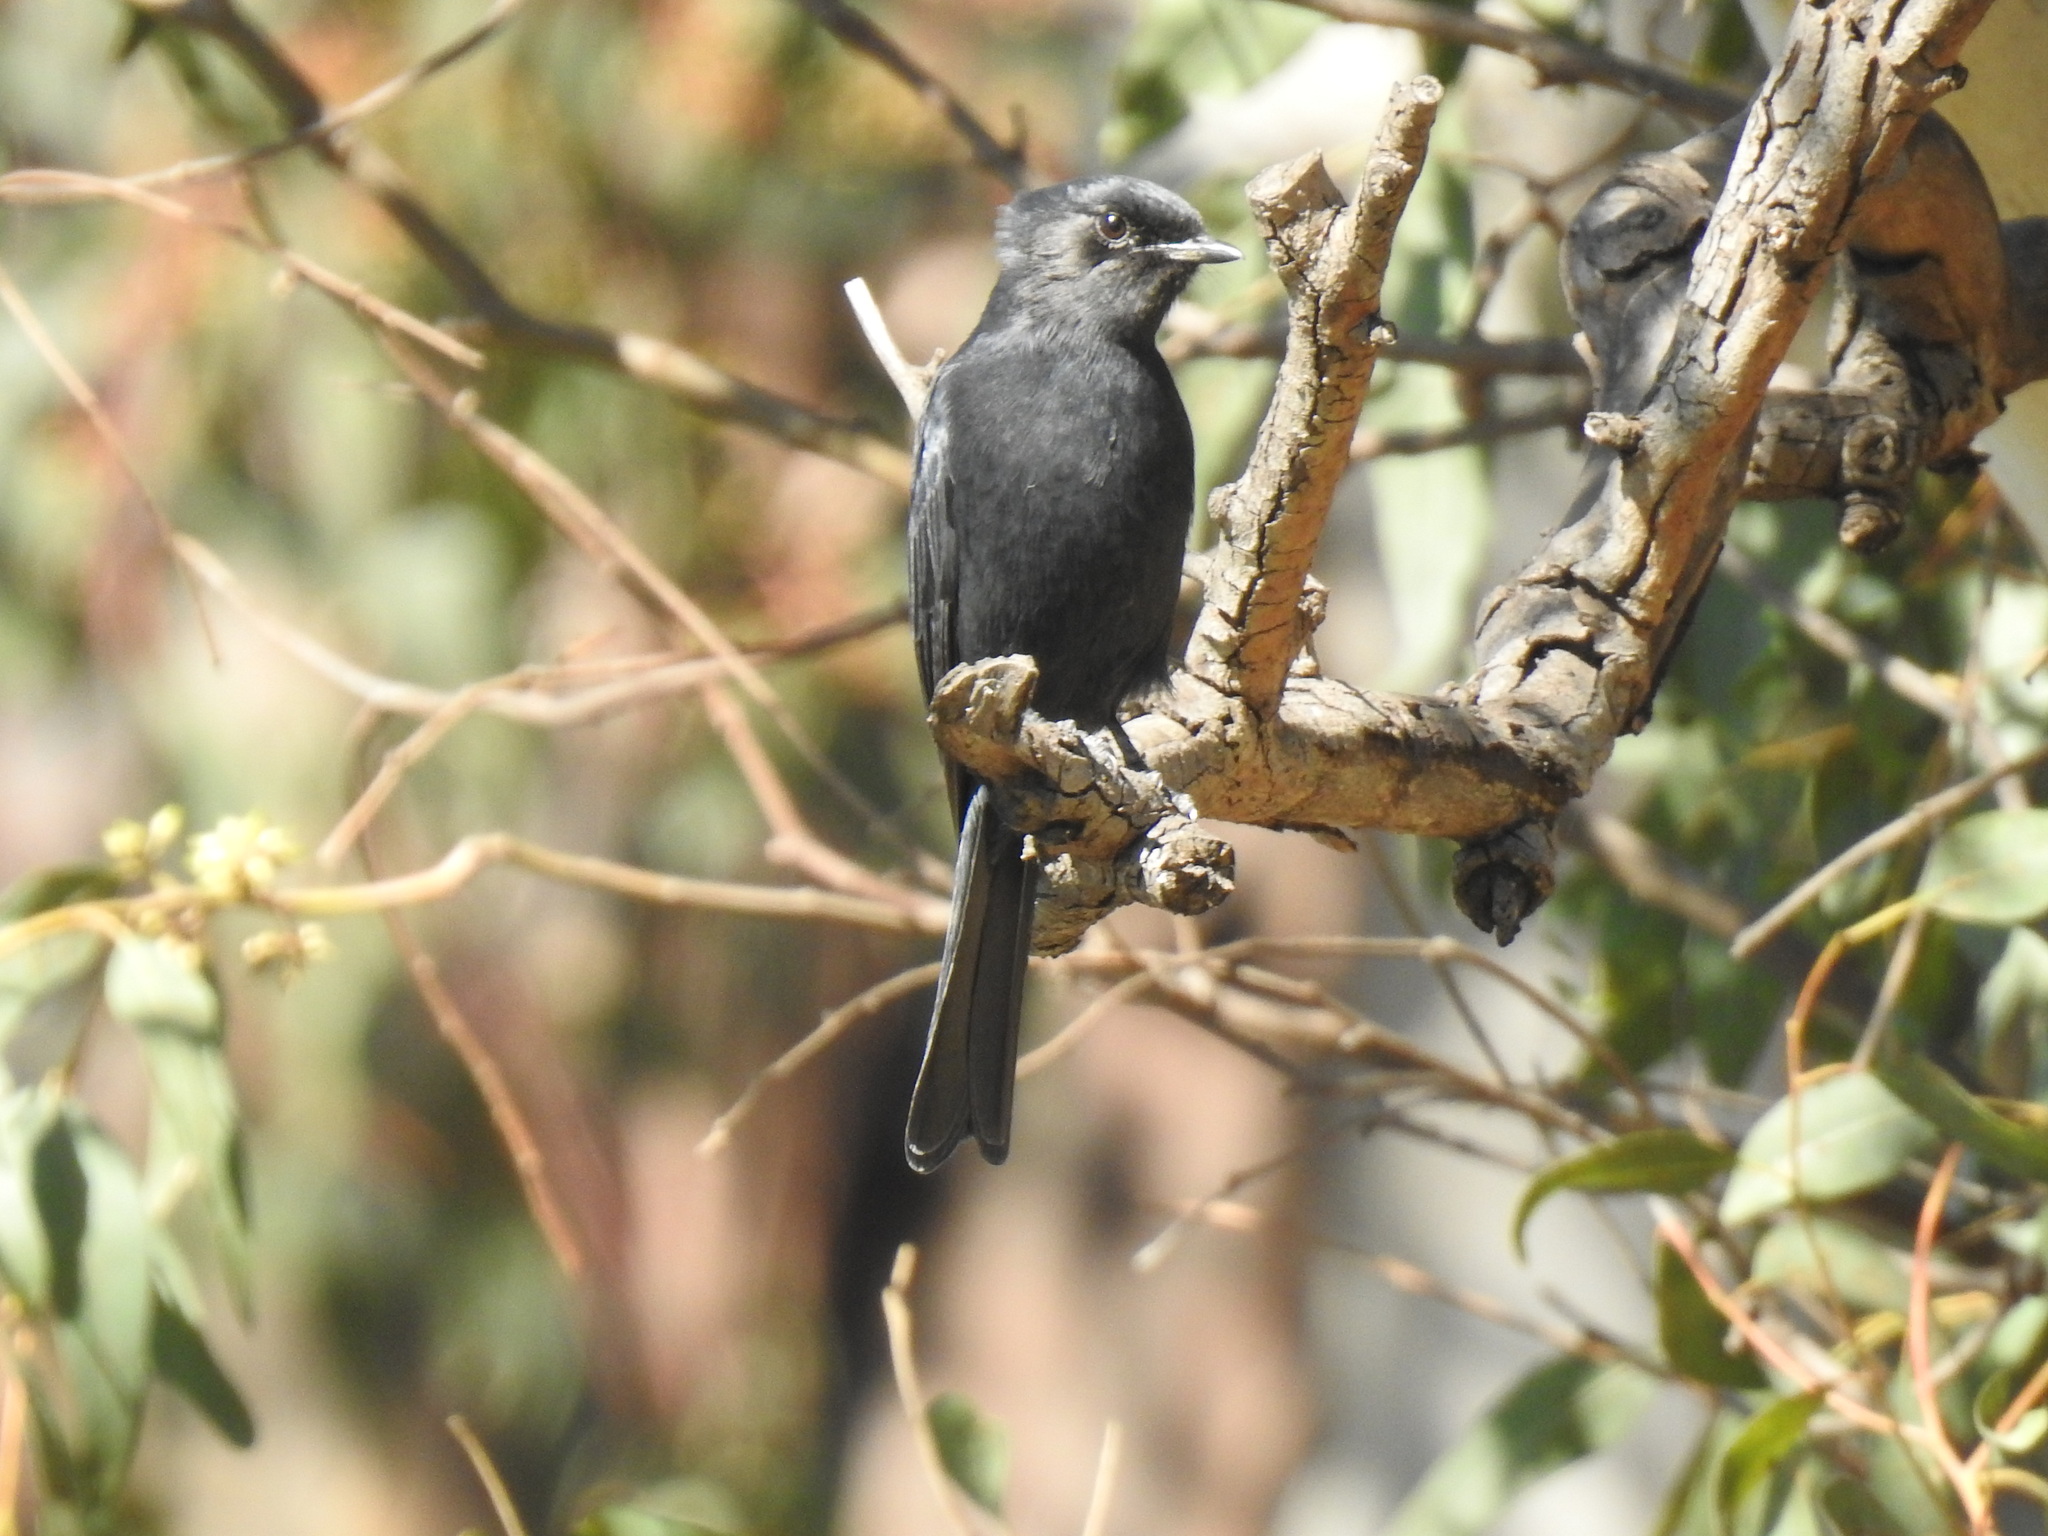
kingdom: Animalia
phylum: Chordata
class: Aves
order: Passeriformes
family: Dicruridae
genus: Dicrurus
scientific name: Dicrurus adsimilis
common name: Fork-tailed drongo
